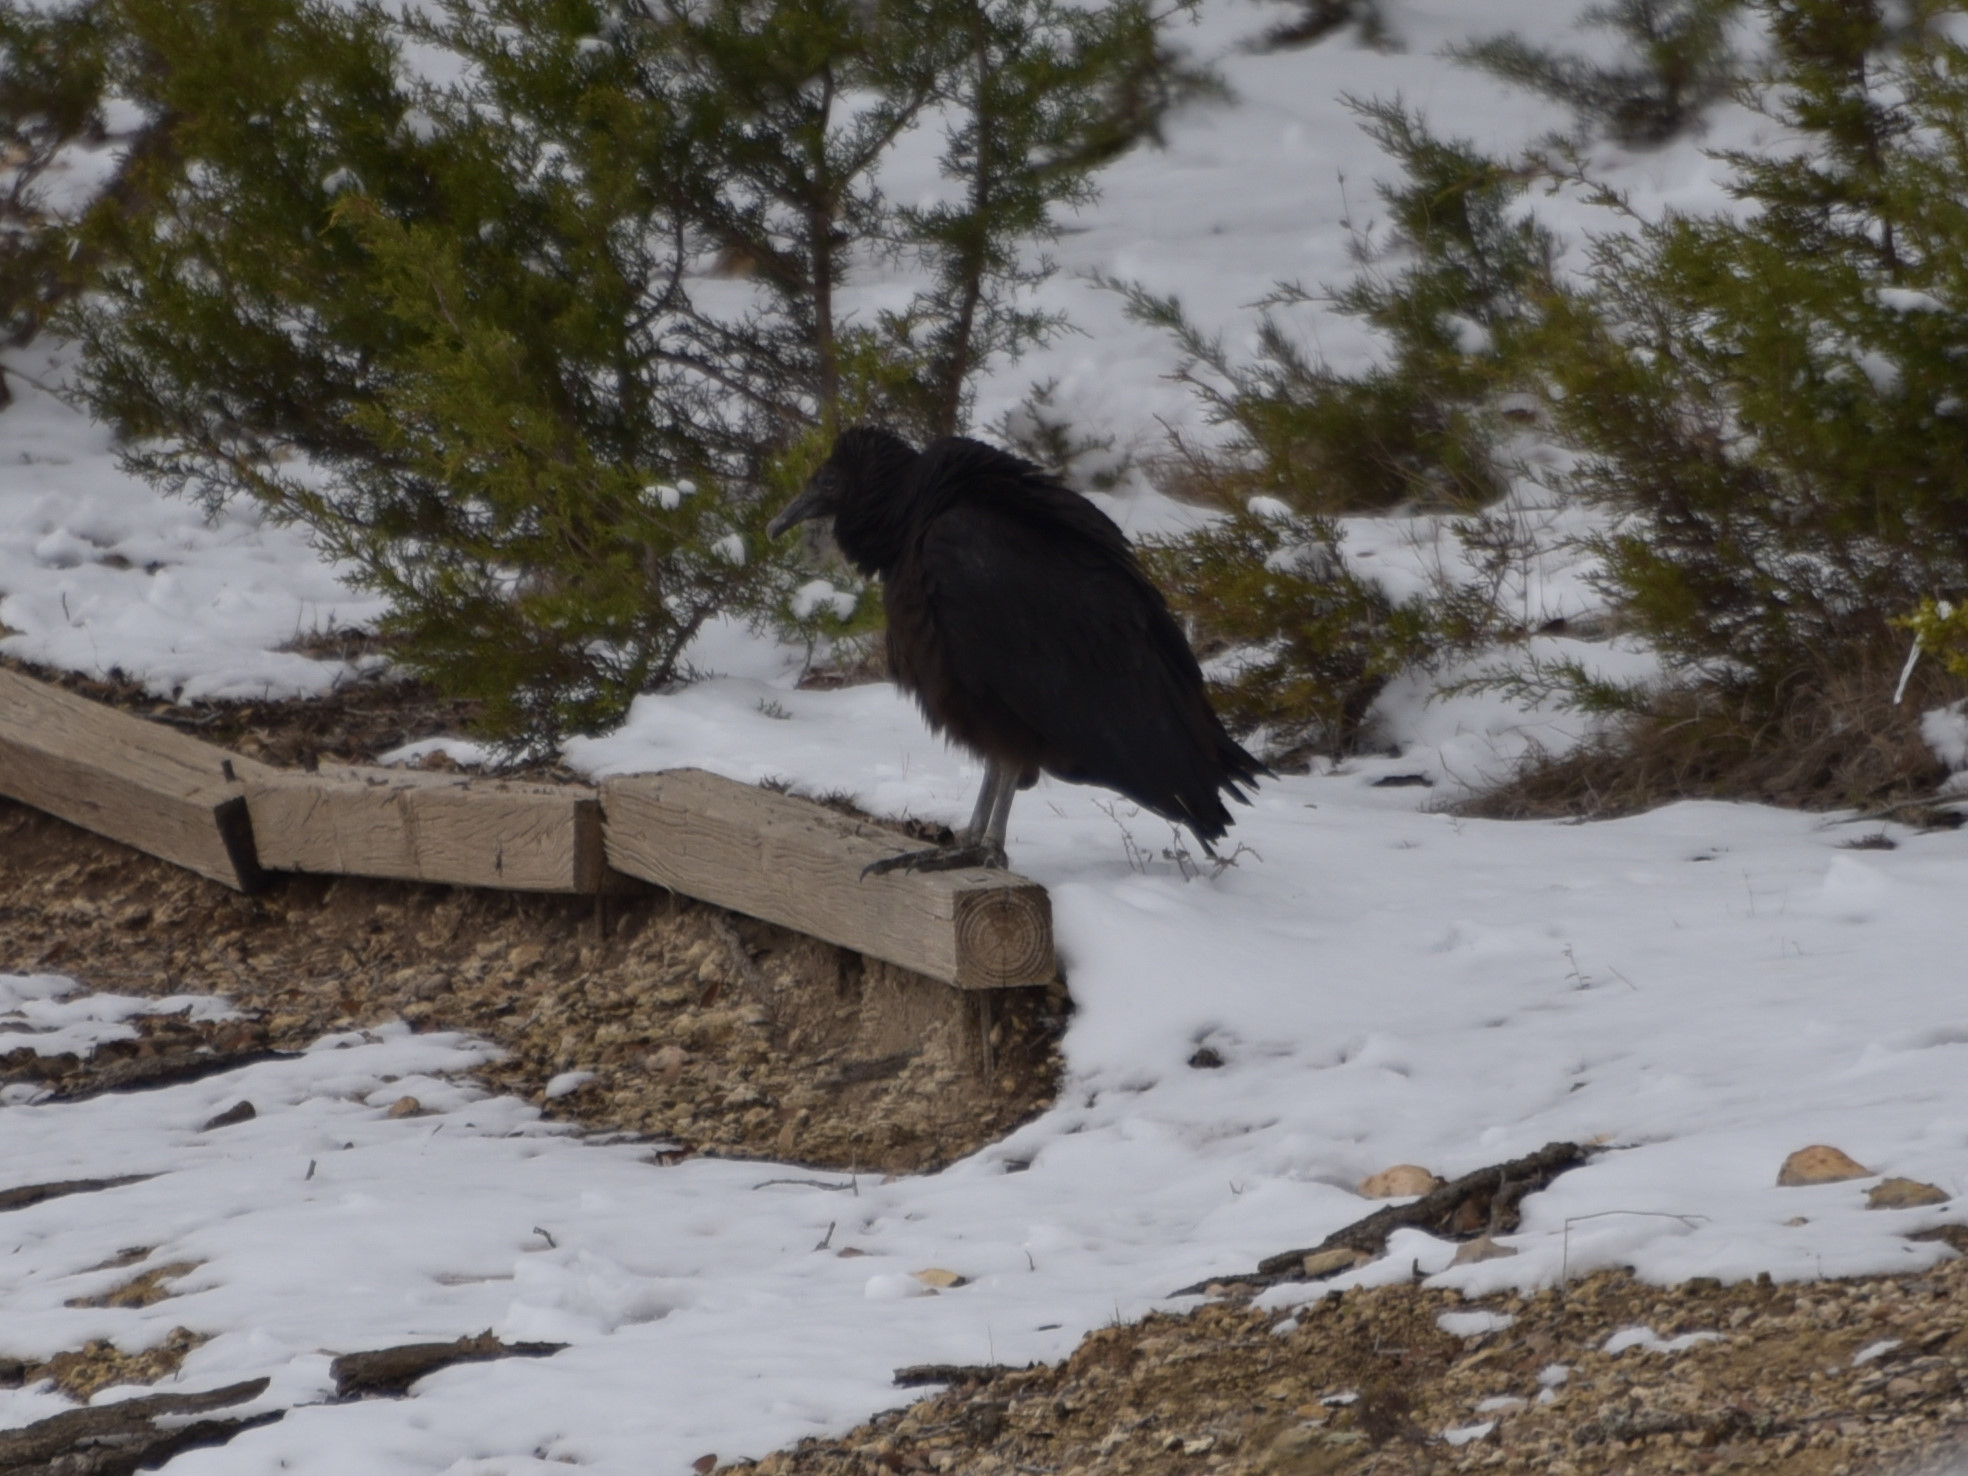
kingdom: Animalia
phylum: Chordata
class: Aves
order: Accipitriformes
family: Cathartidae
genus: Coragyps
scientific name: Coragyps atratus
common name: Black vulture
